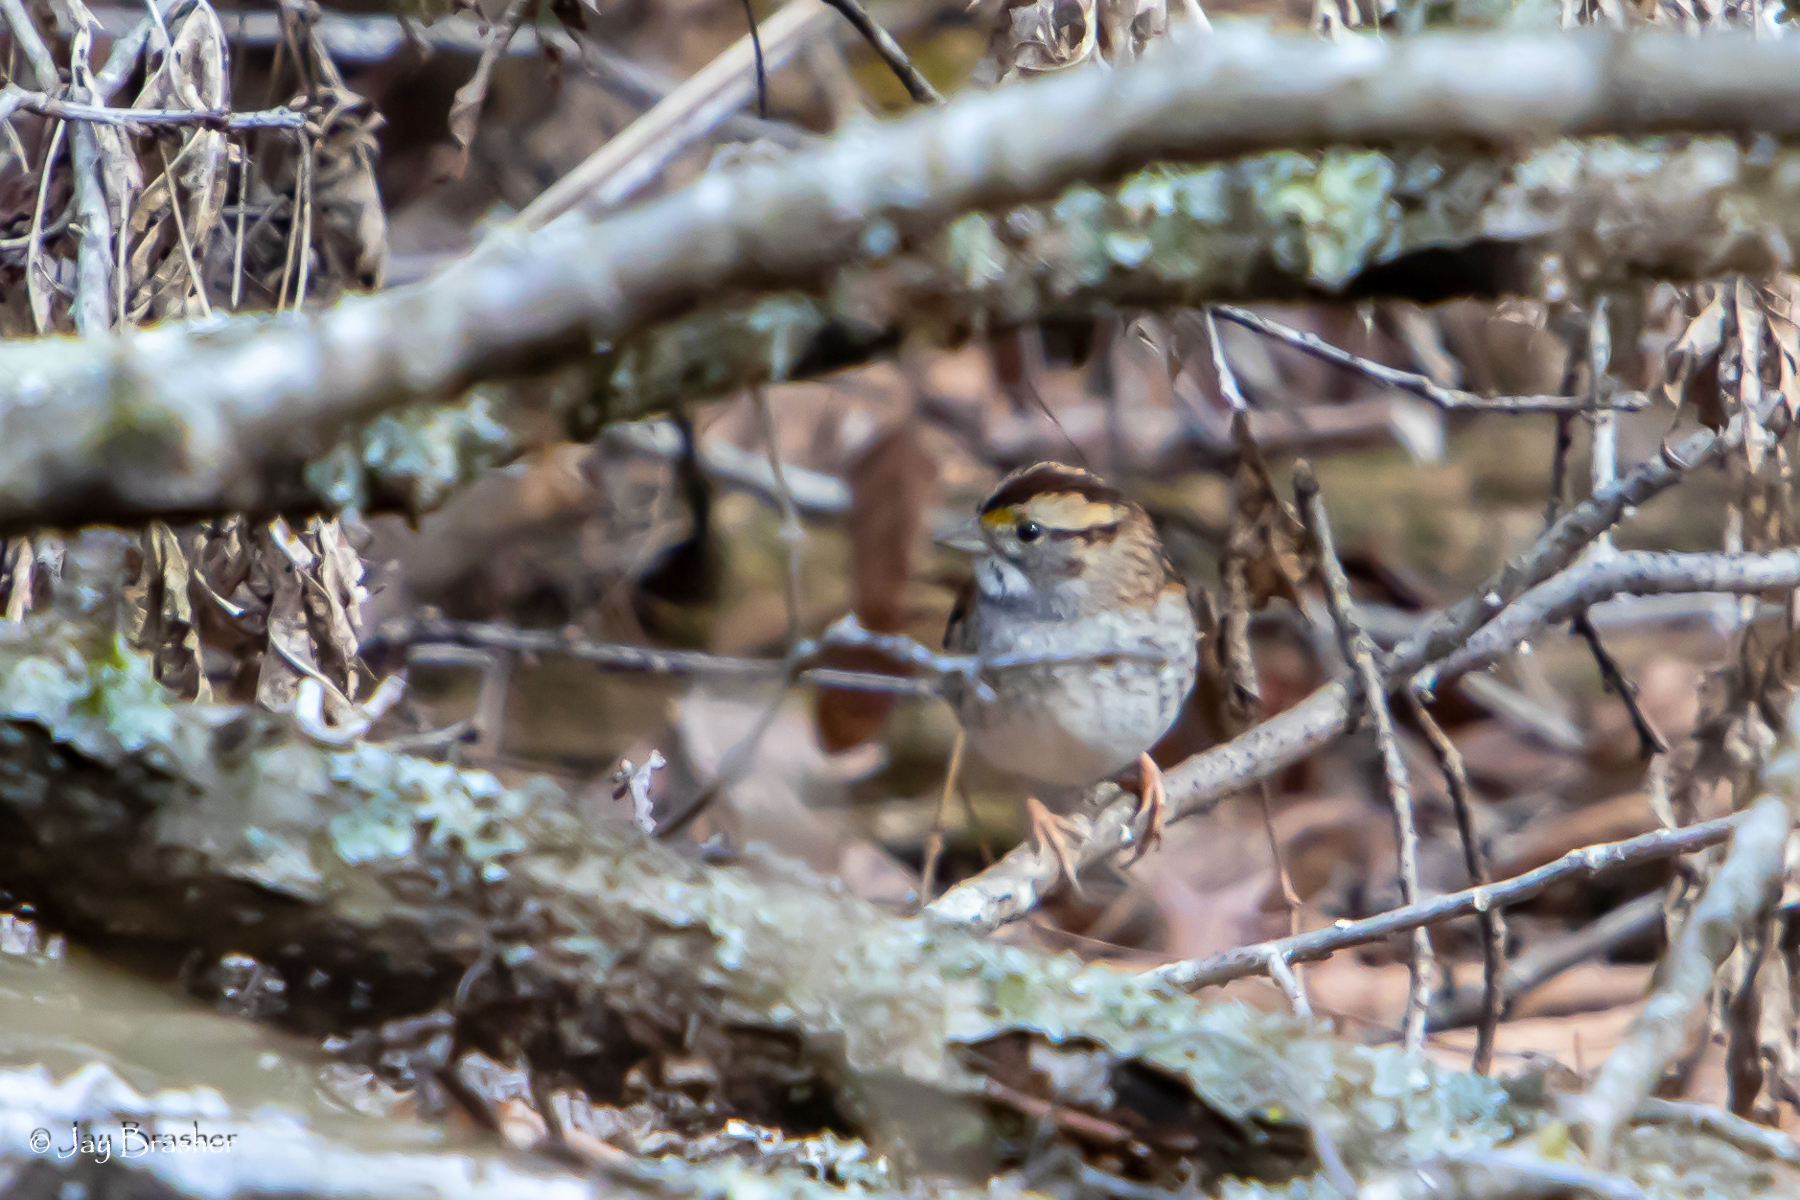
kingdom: Animalia
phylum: Chordata
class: Aves
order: Passeriformes
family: Passerellidae
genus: Zonotrichia
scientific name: Zonotrichia albicollis
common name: White-throated sparrow
